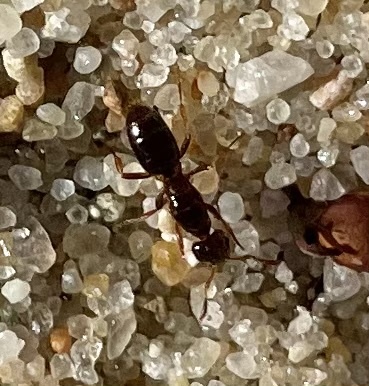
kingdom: Animalia
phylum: Arthropoda
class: Insecta
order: Hymenoptera
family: Formicidae
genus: Lasius
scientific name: Lasius claviger
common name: Common citronella ant
